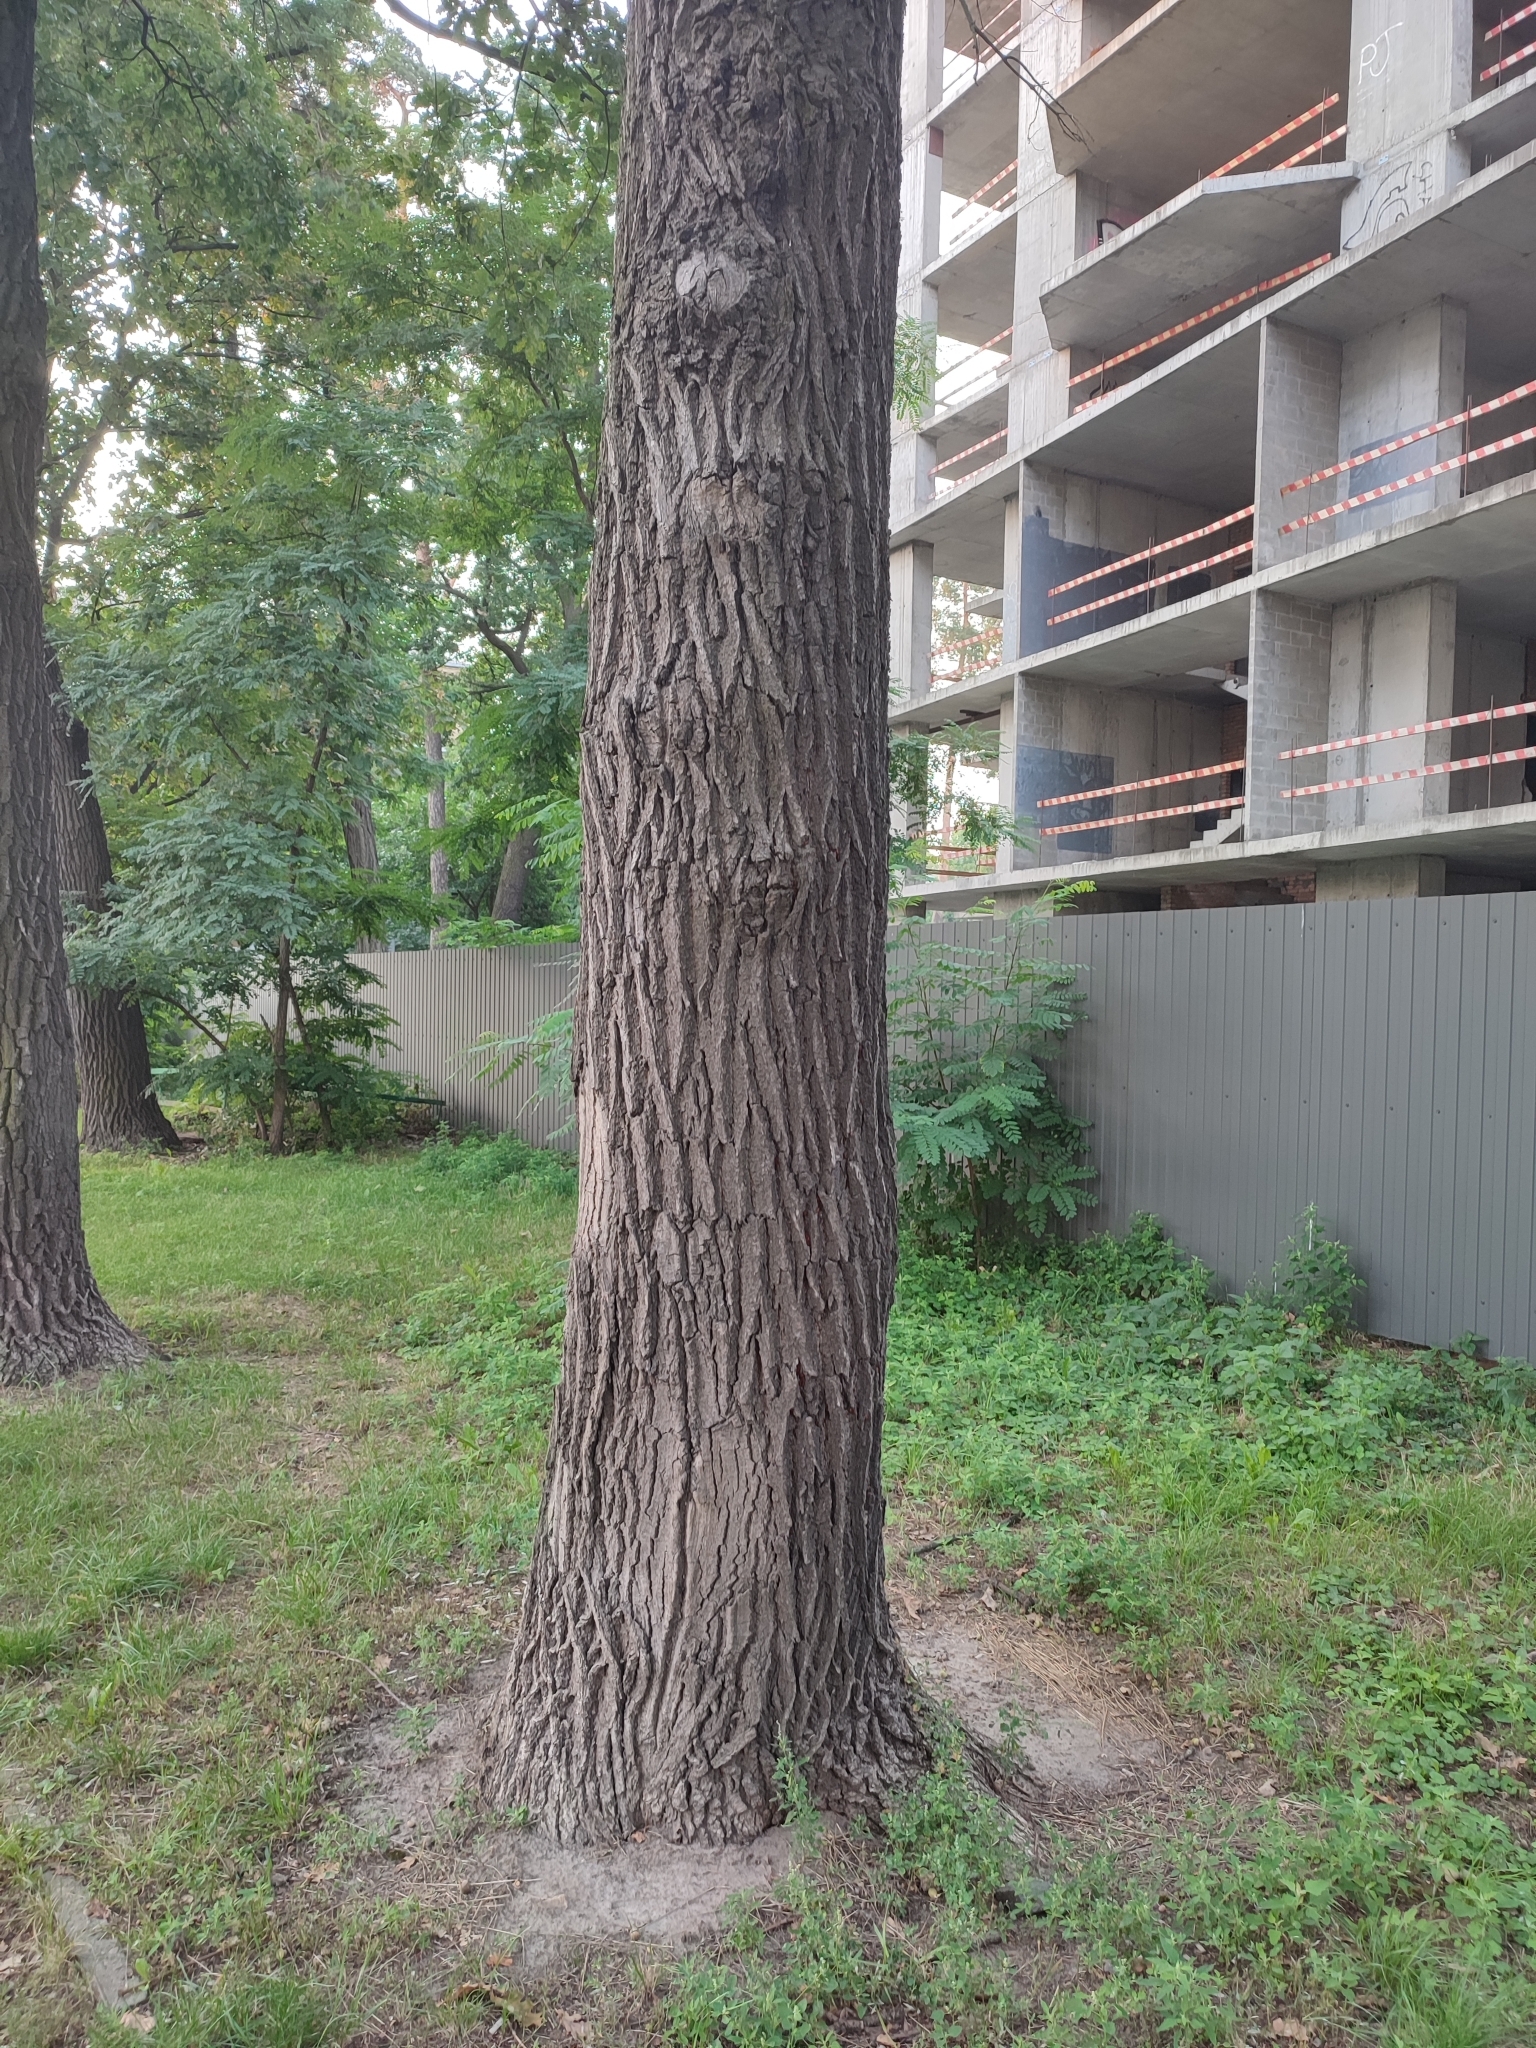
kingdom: Plantae
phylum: Tracheophyta
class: Magnoliopsida
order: Fagales
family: Fagaceae
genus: Quercus
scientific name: Quercus robur
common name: Pedunculate oak
